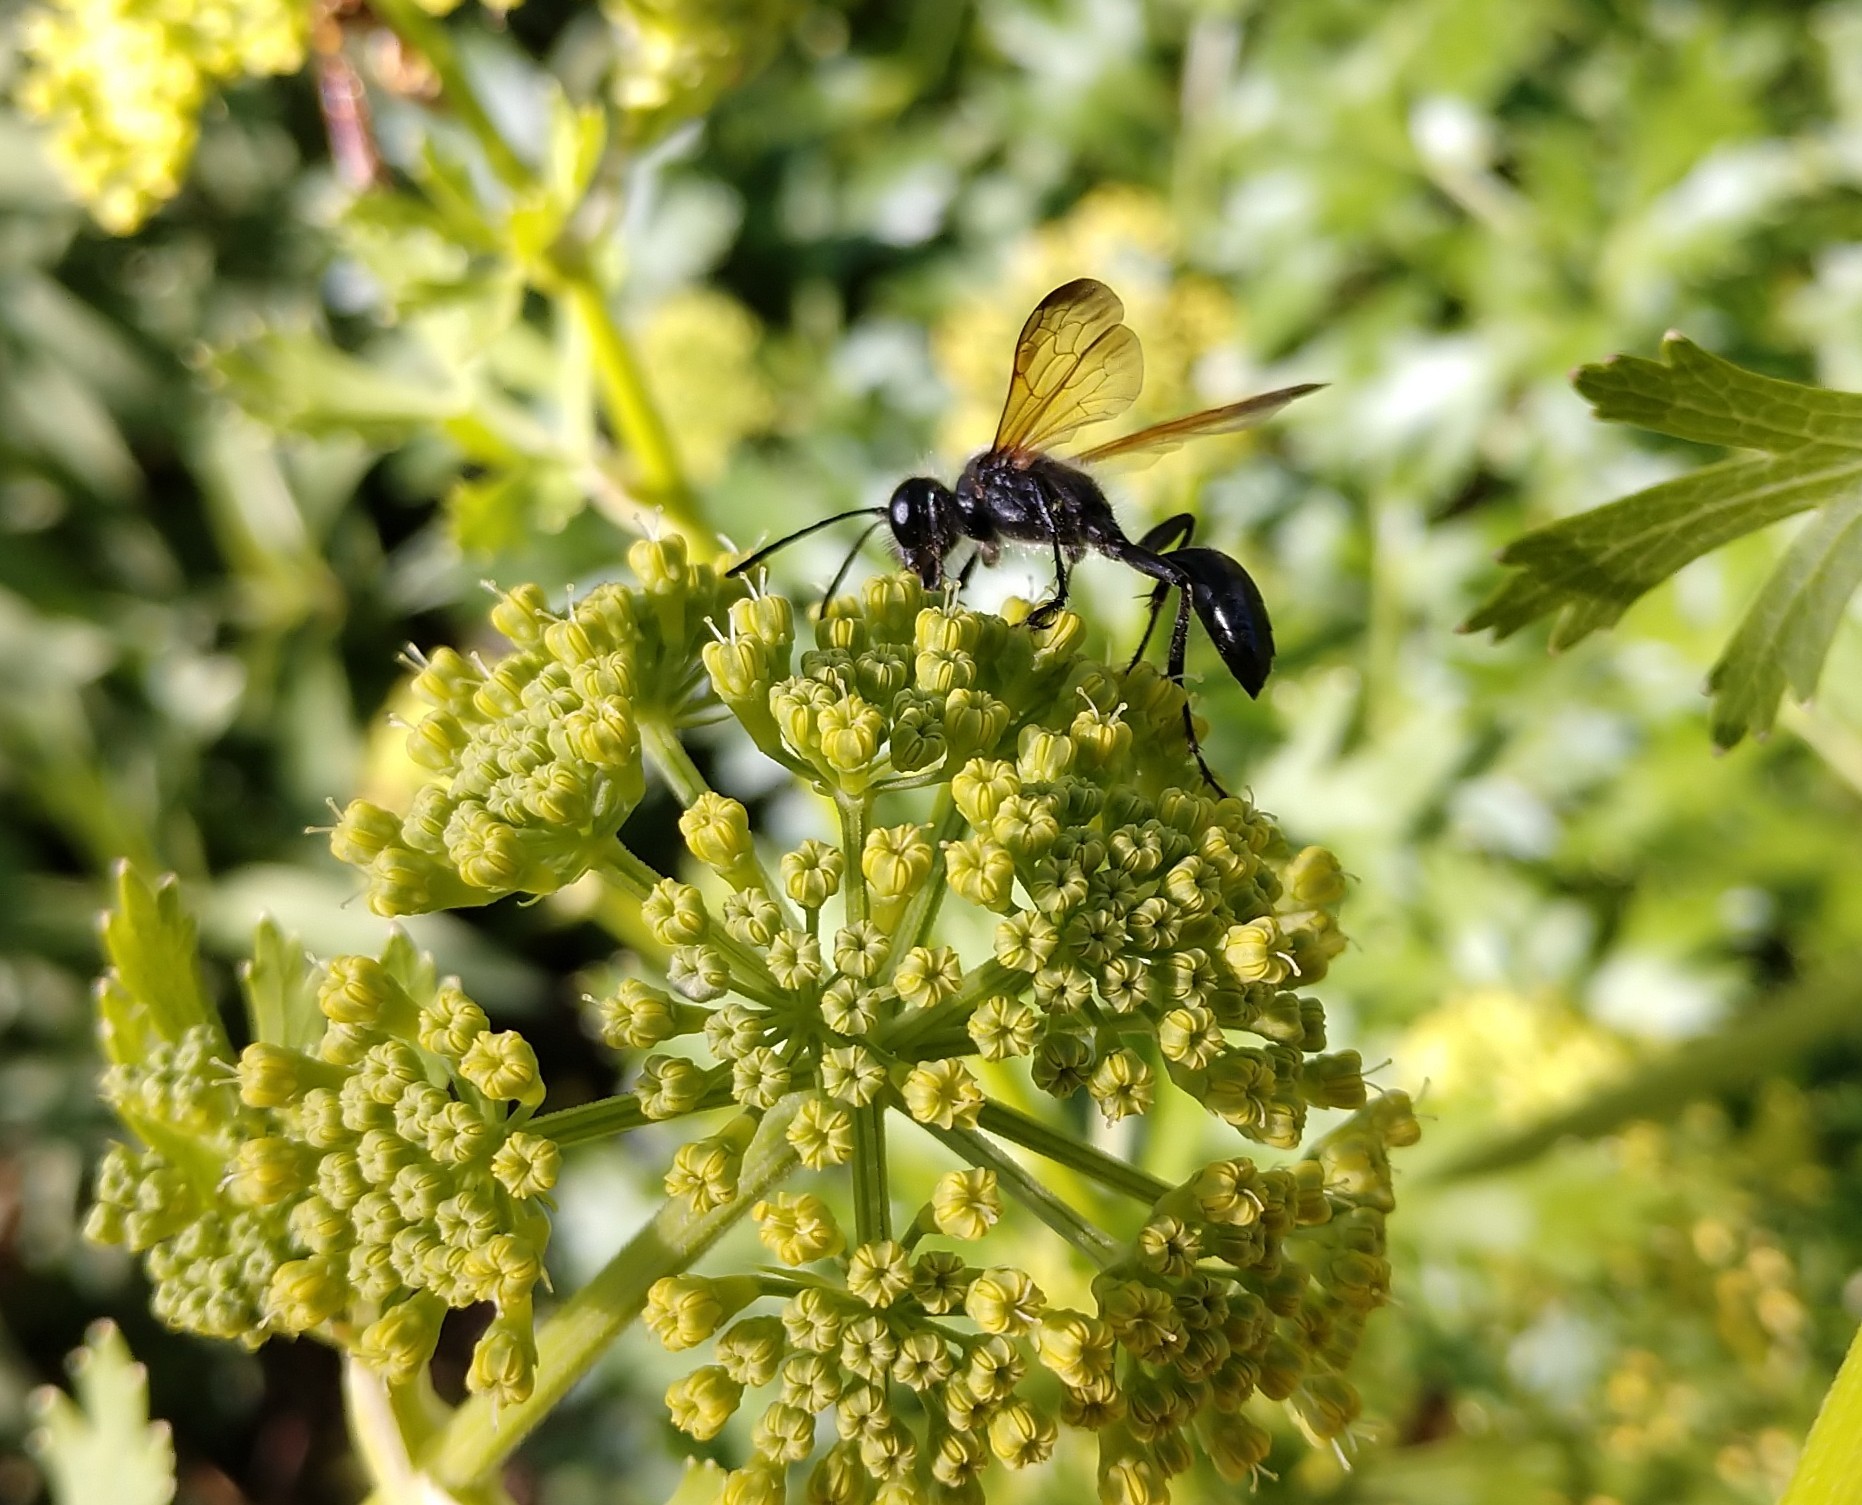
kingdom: Animalia
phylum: Arthropoda
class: Insecta
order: Hymenoptera
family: Sphecidae
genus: Isodontia
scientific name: Isodontia mexicana
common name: Mud dauber
